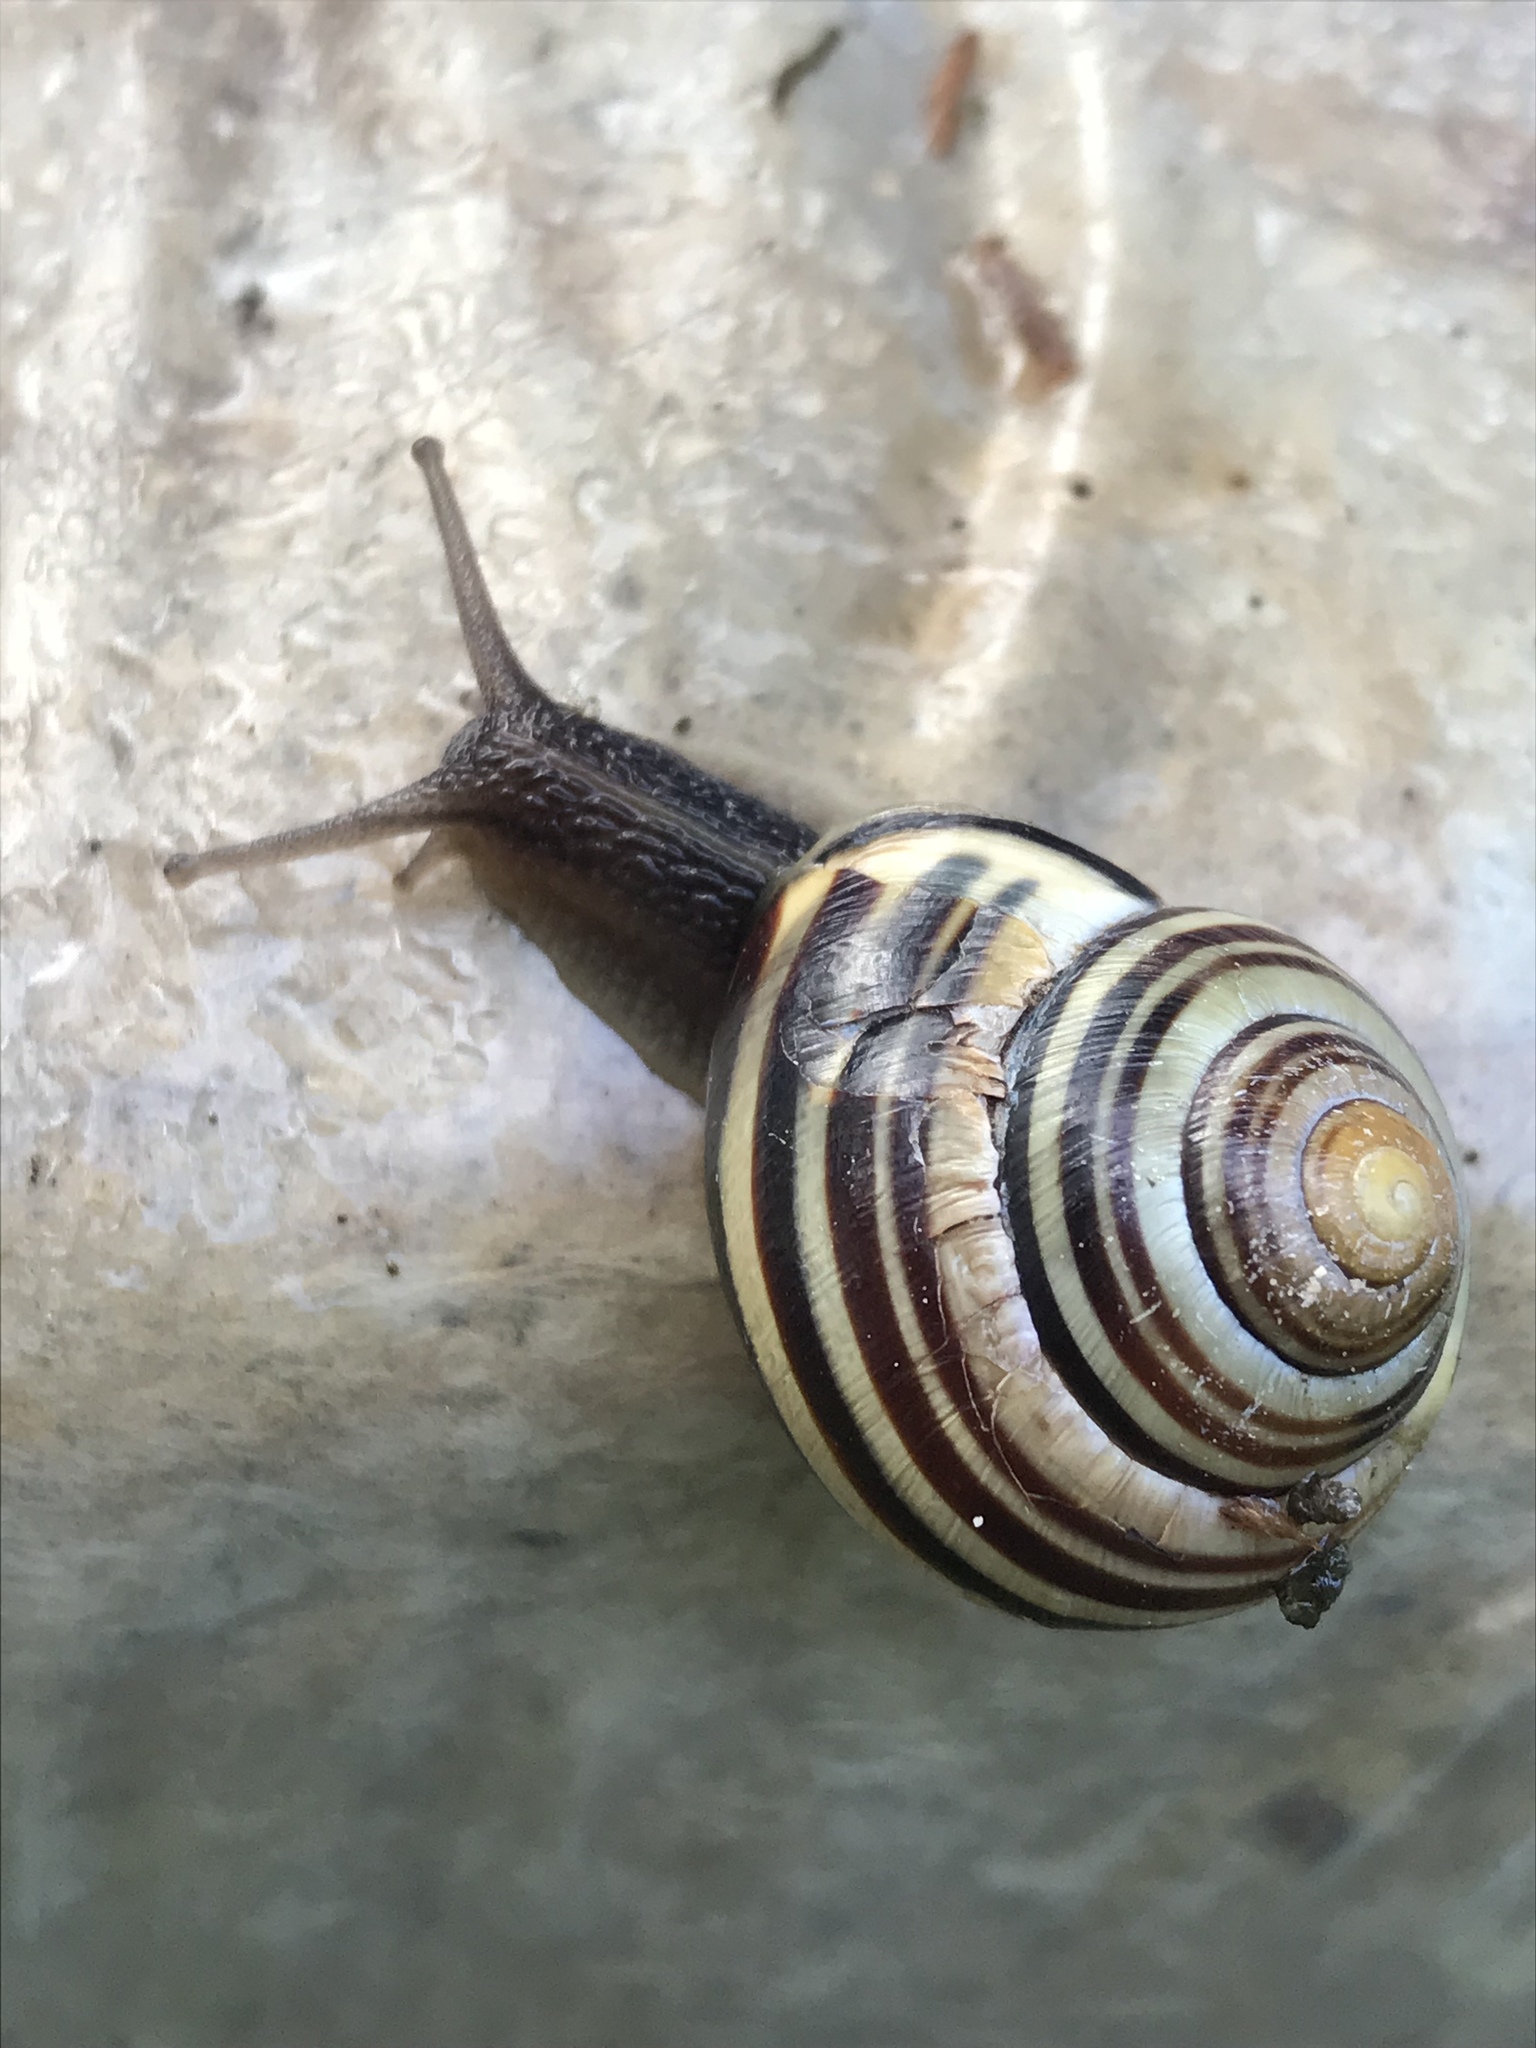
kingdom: Animalia
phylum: Mollusca
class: Gastropoda
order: Stylommatophora
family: Helicidae
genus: Cepaea
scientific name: Cepaea nemoralis
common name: Grovesnail
